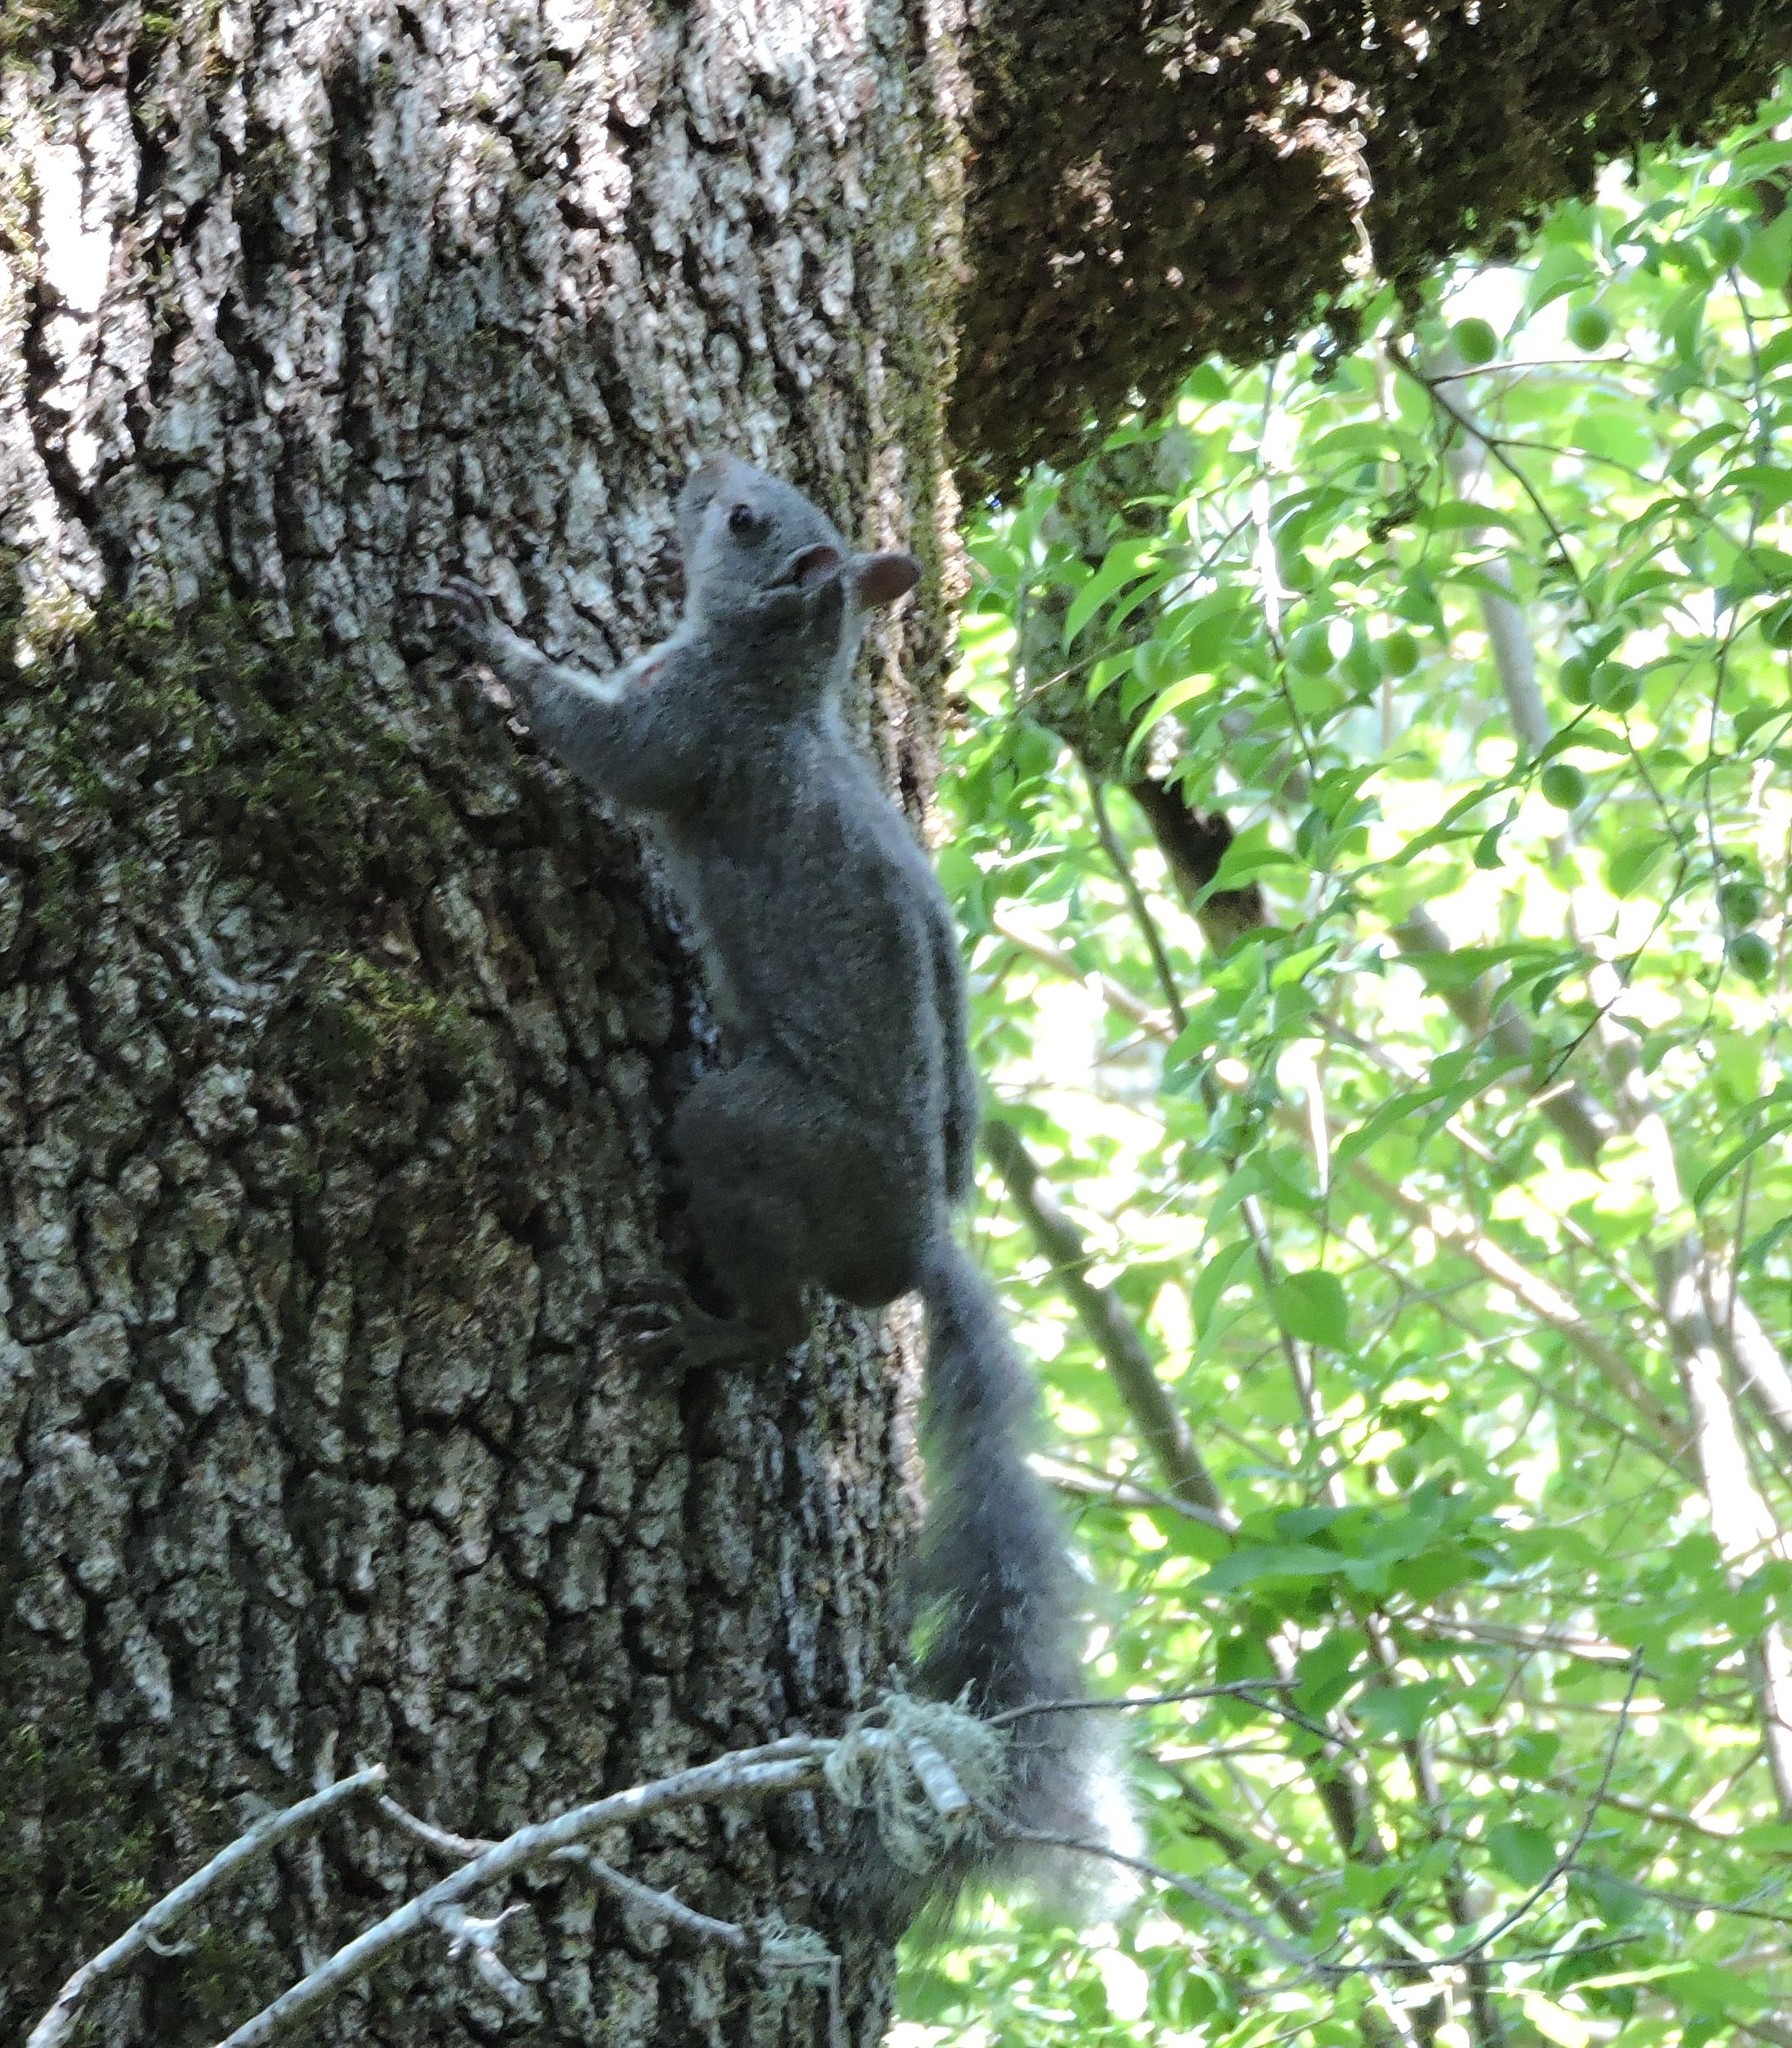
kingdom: Animalia
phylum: Chordata
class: Mammalia
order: Rodentia
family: Sciuridae
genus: Sciurus
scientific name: Sciurus griseus
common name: Western gray squirrel
